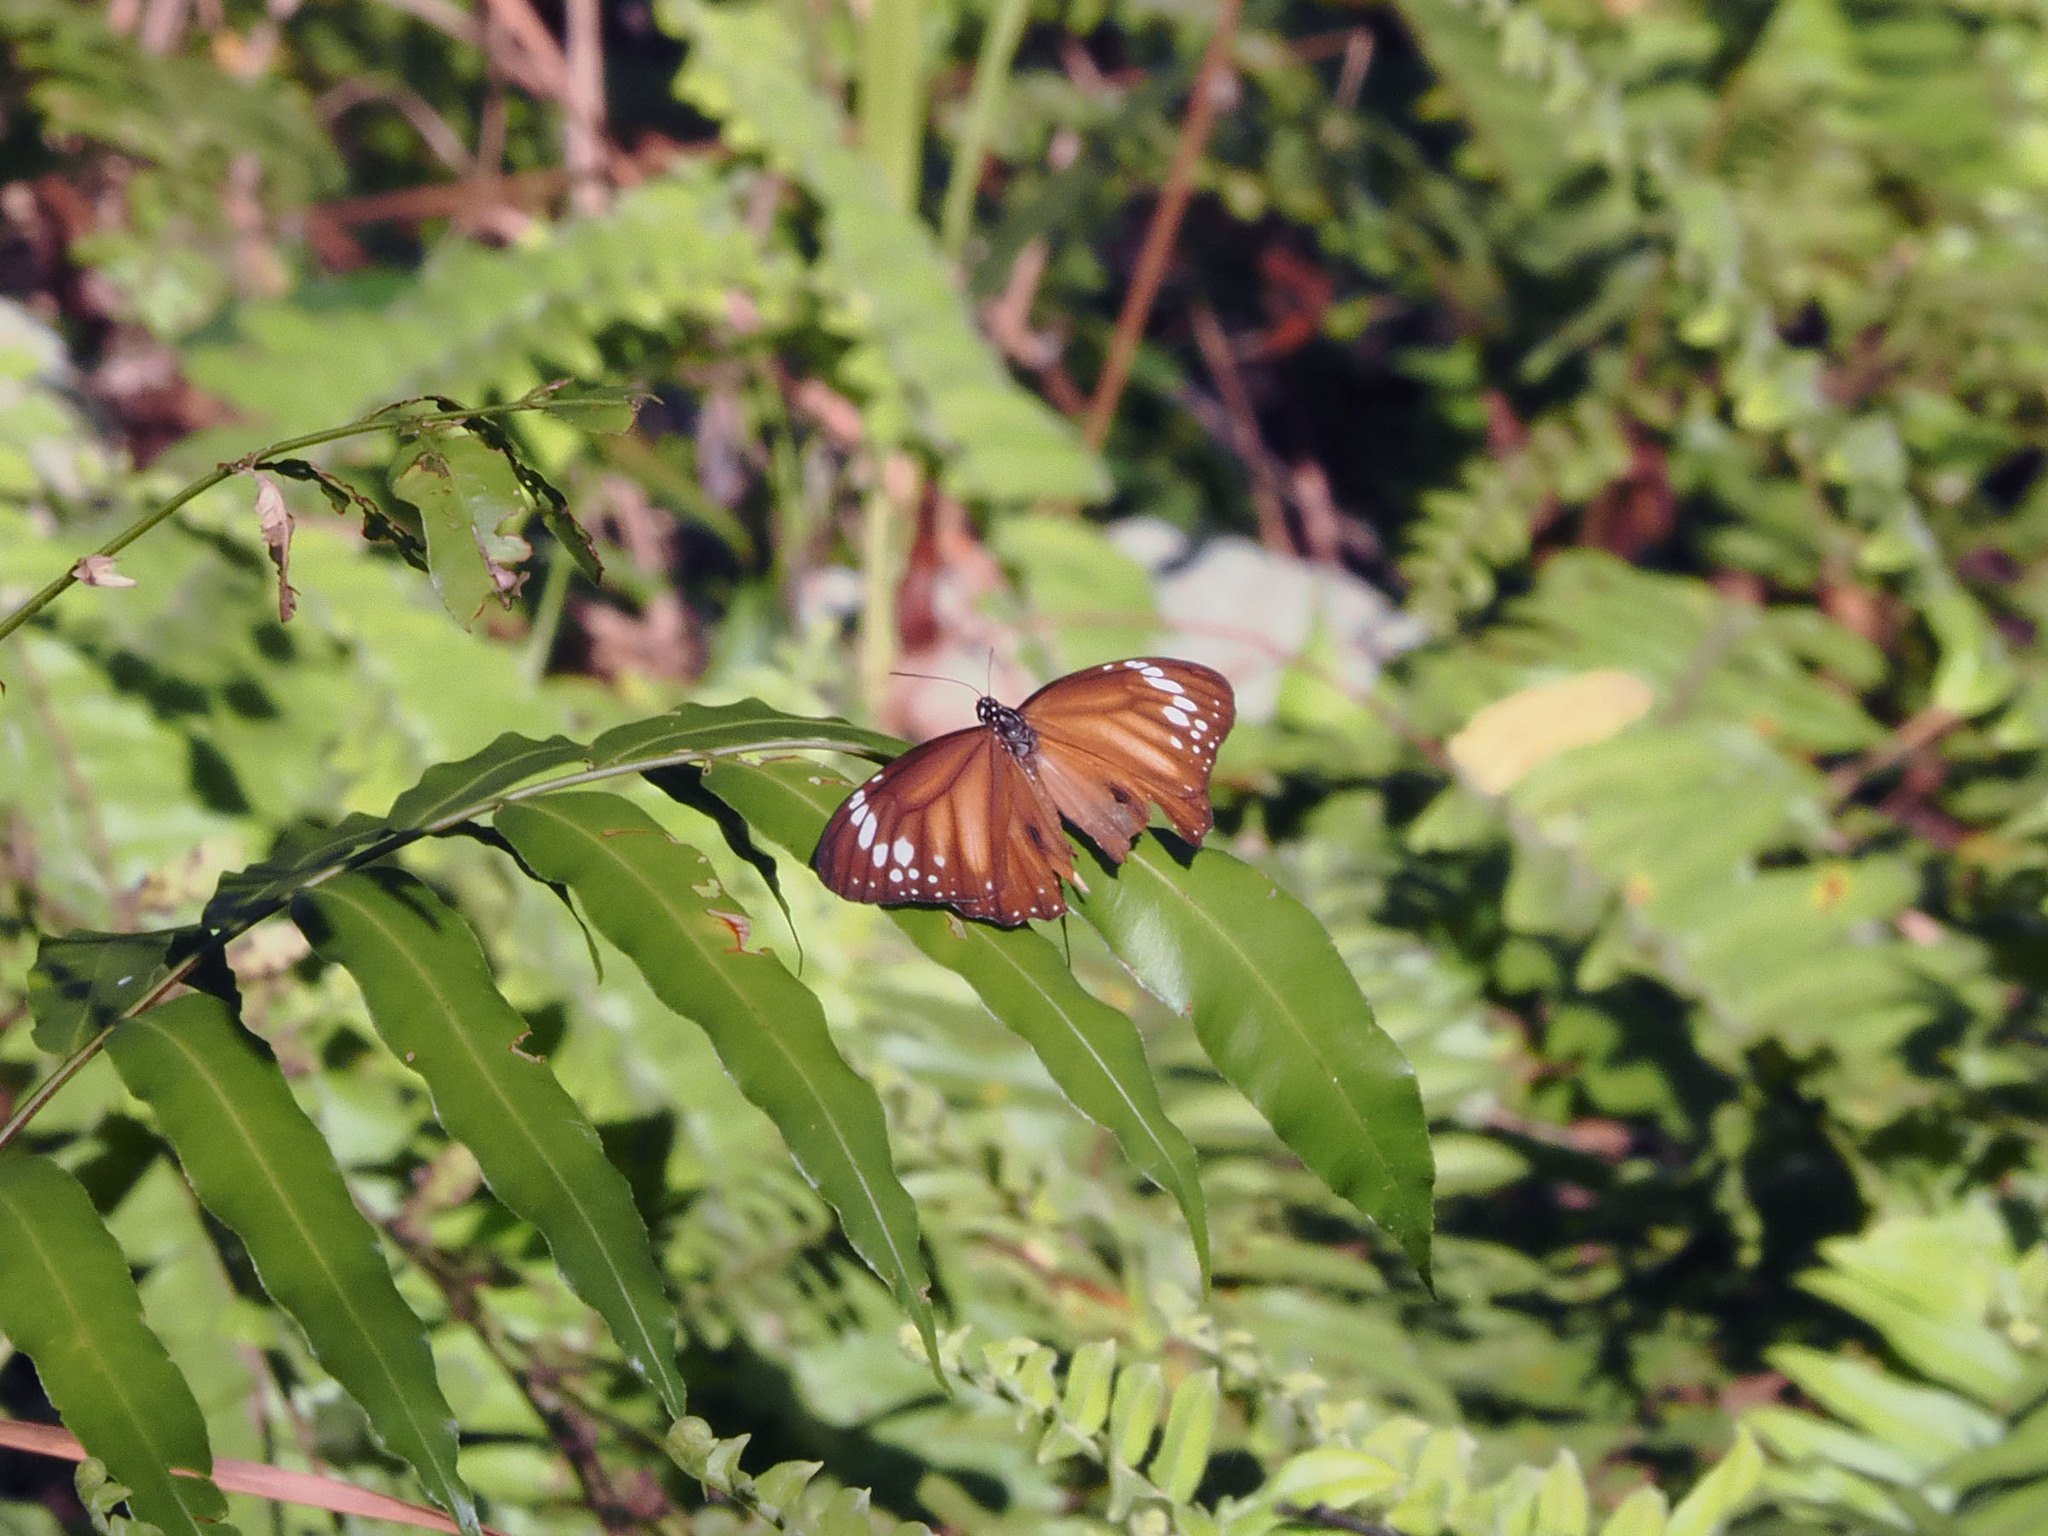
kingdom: Animalia
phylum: Arthropoda
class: Insecta
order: Lepidoptera
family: Nymphalidae
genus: Danaus
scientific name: Danaus affinis
